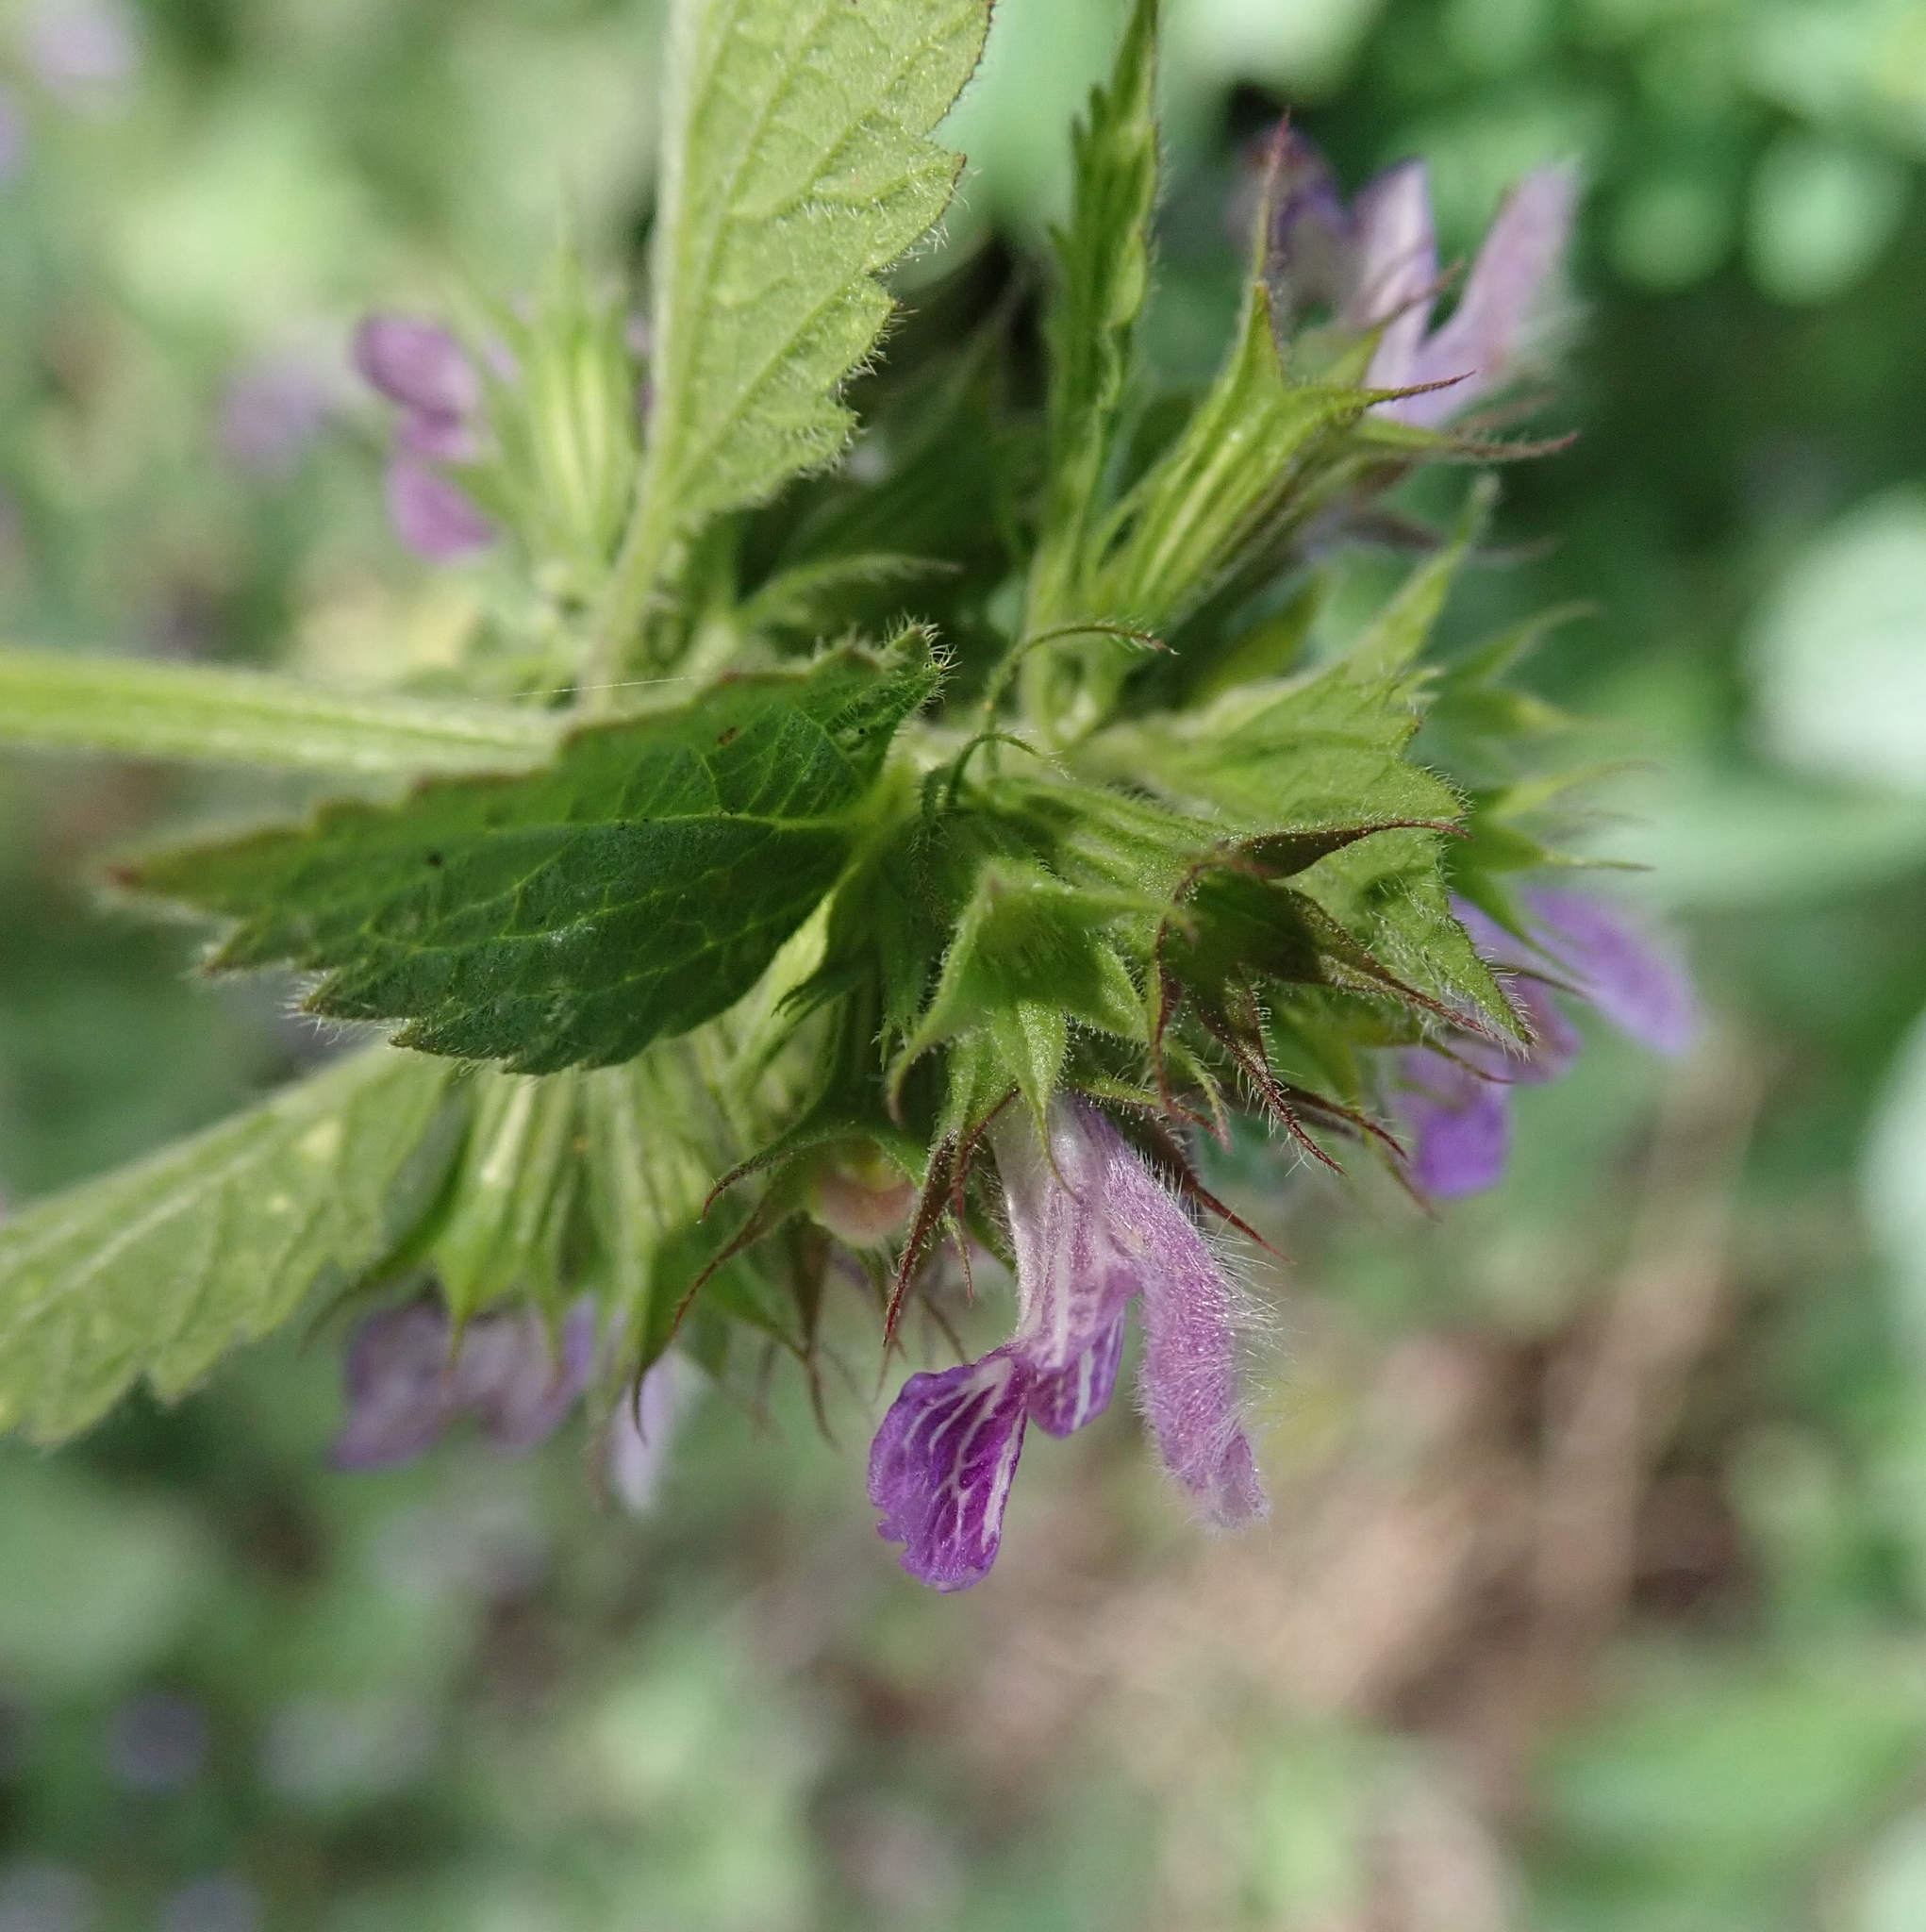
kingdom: Plantae
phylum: Tracheophyta
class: Magnoliopsida
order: Lamiales
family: Lamiaceae
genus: Ballota
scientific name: Ballota nigra
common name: Black horehound
